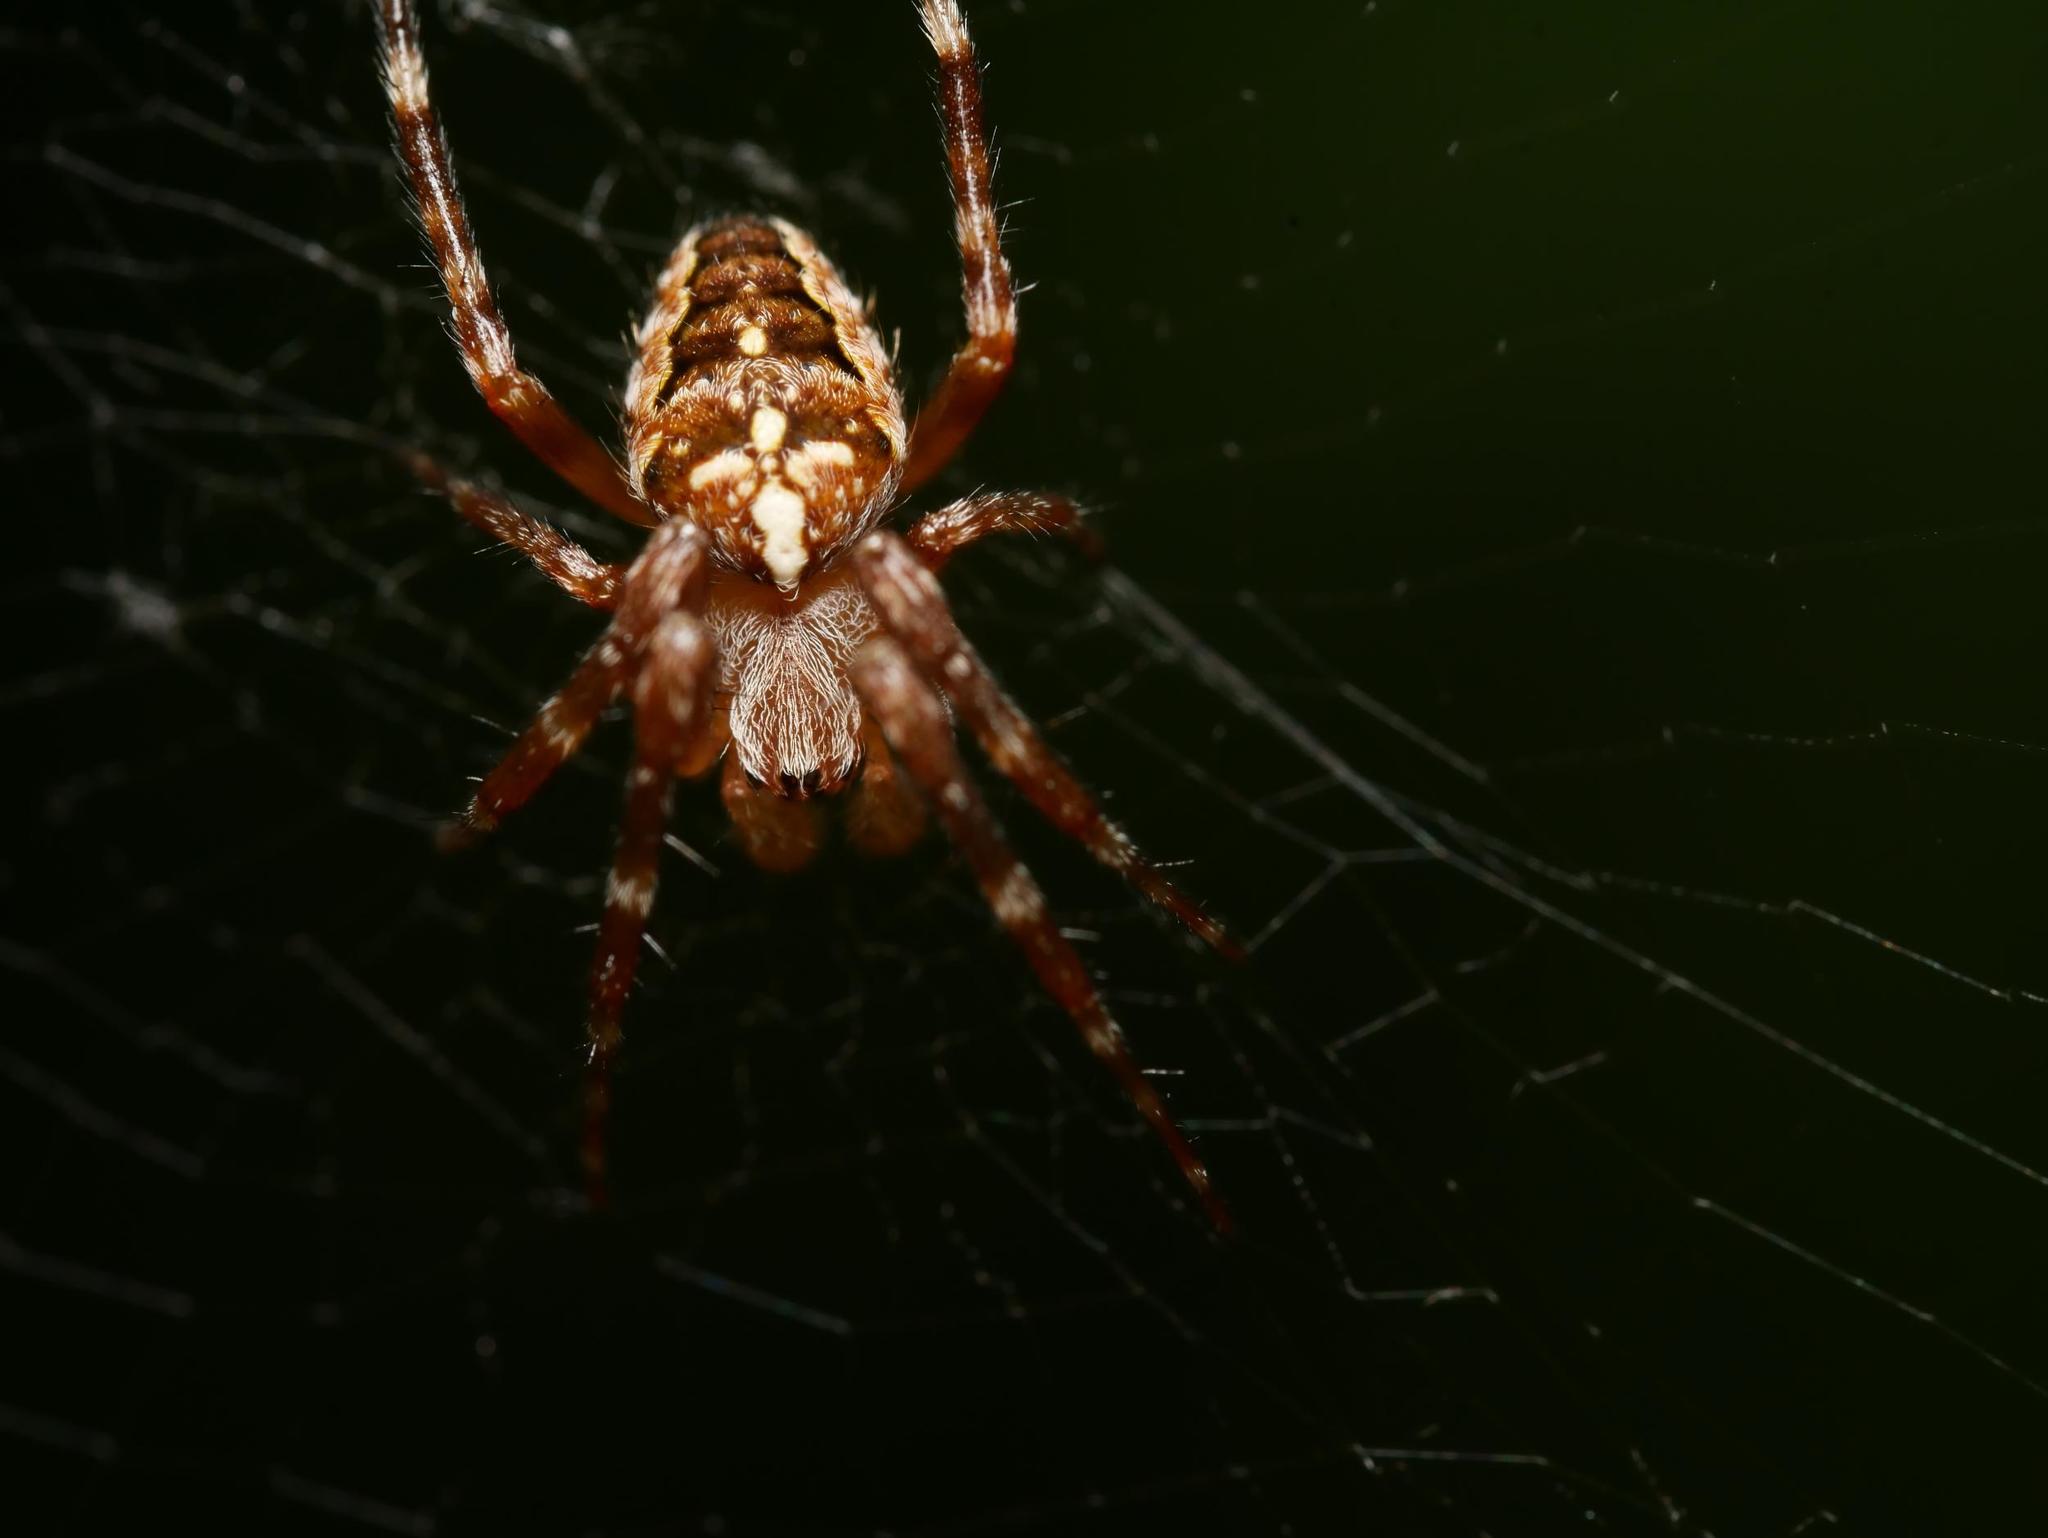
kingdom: Animalia
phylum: Arthropoda
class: Arachnida
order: Araneae
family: Araneidae
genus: Araneus
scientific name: Araneus diadematus
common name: Cross orbweaver
